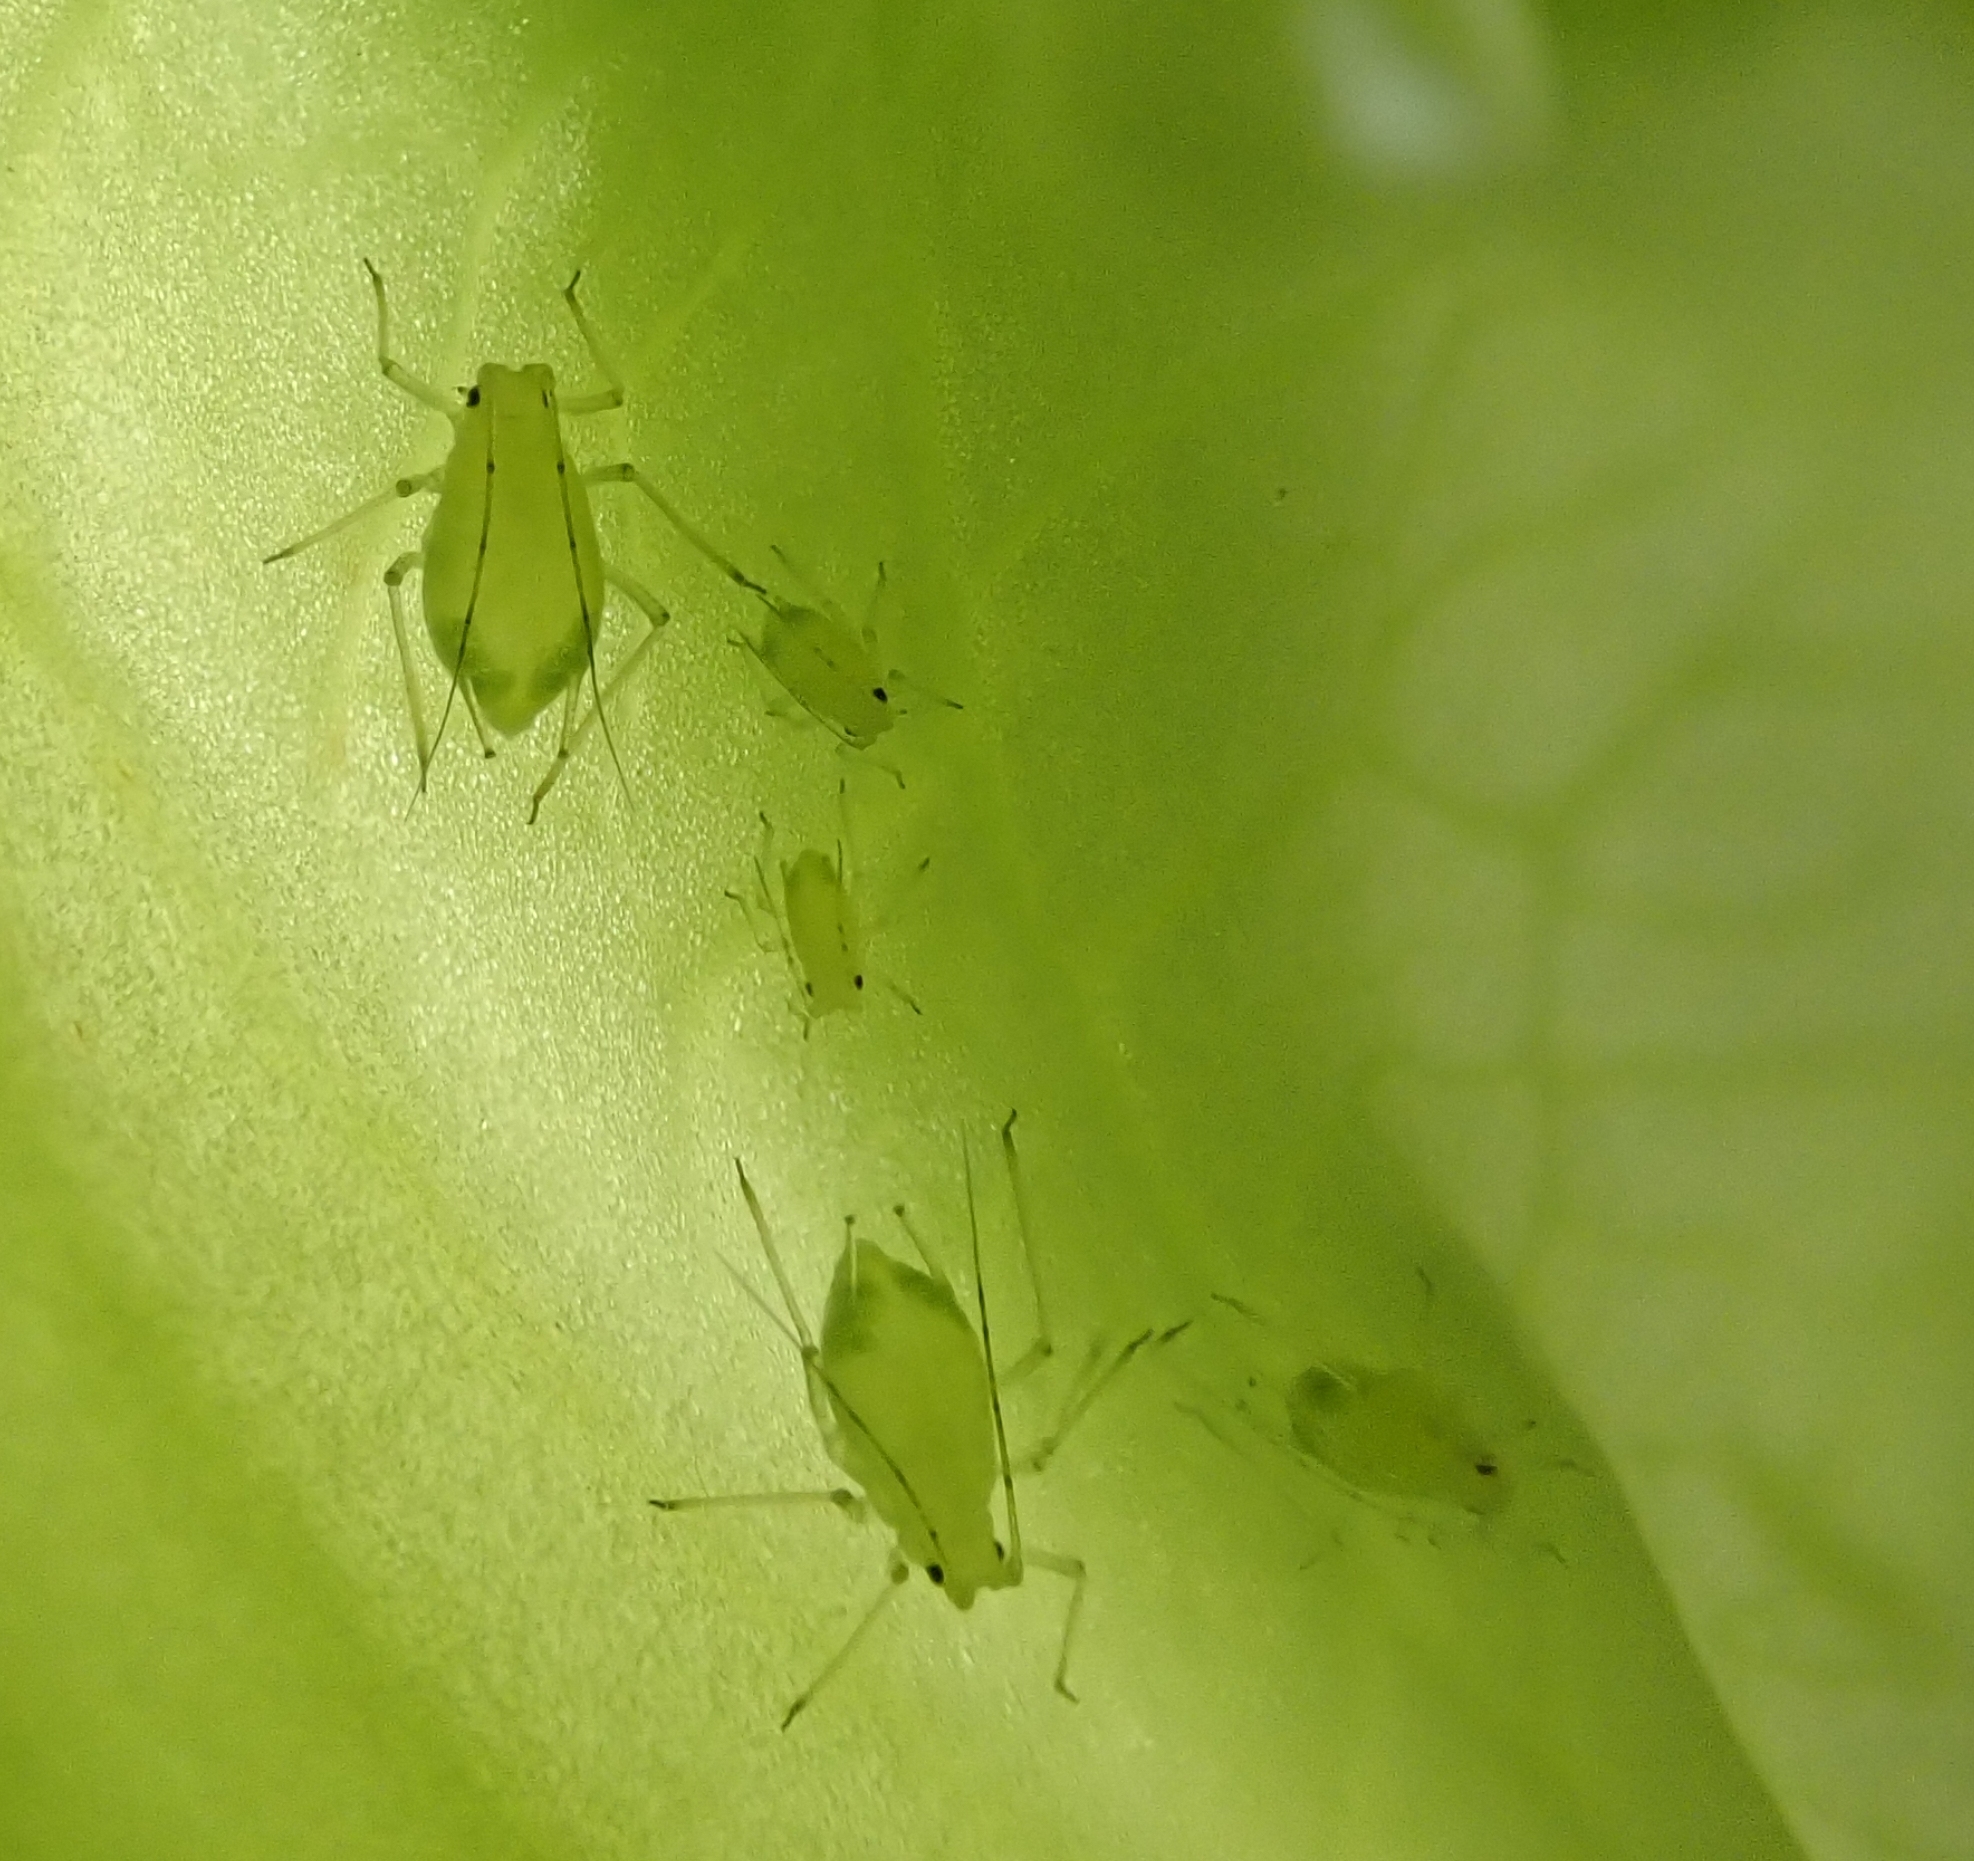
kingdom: Animalia
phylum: Arthropoda
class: Insecta
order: Hemiptera
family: Aphididae
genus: Aulacorthum
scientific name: Aulacorthum solani
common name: Foxglove aphid
